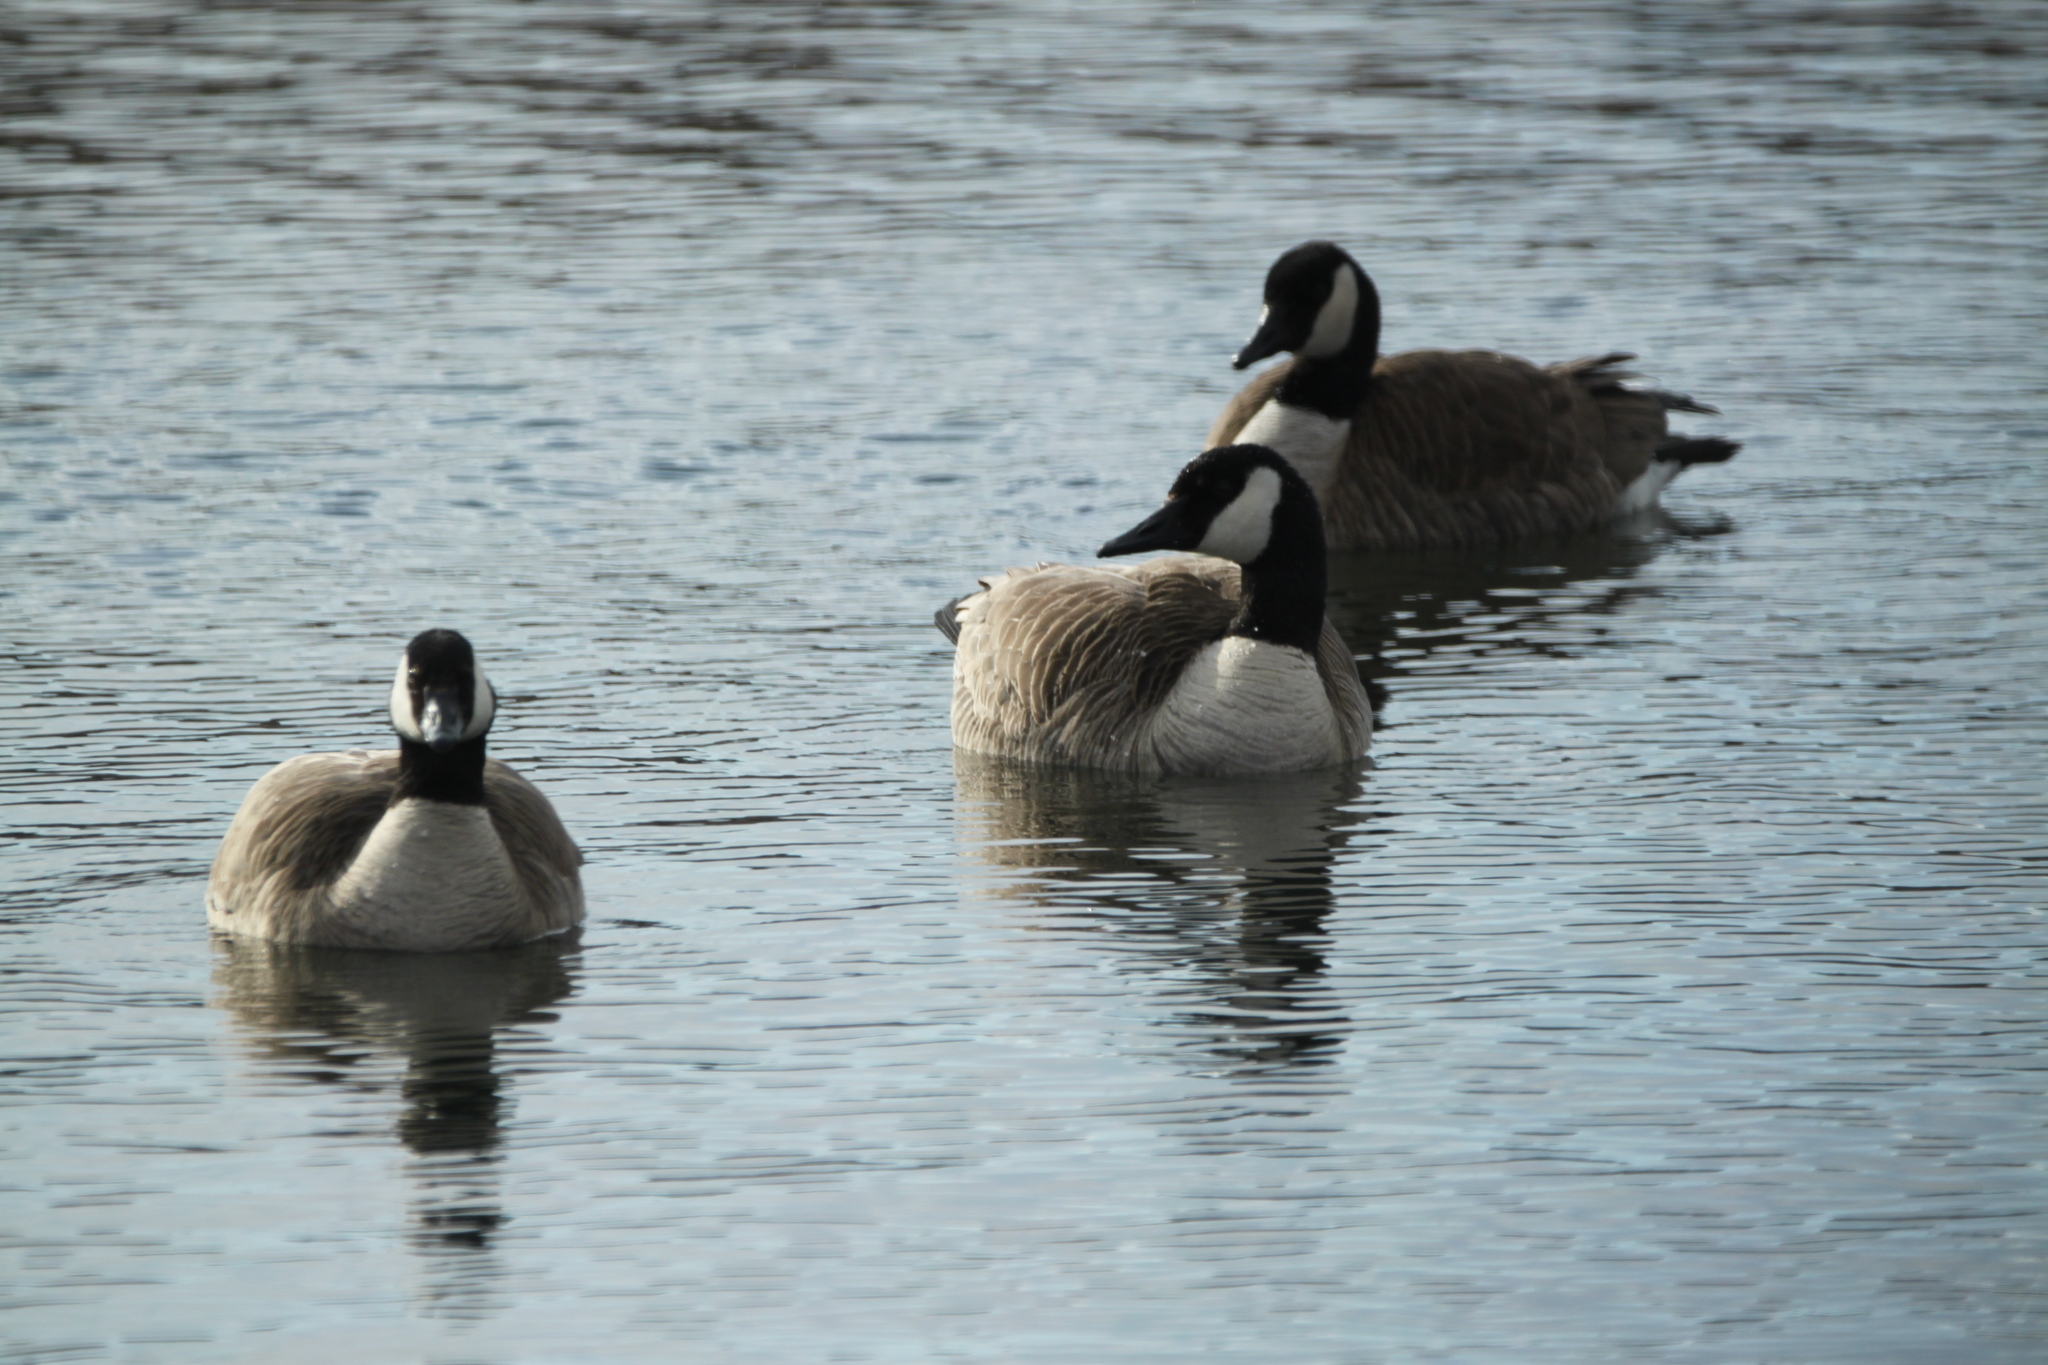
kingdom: Animalia
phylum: Chordata
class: Aves
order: Anseriformes
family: Anatidae
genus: Branta
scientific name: Branta canadensis
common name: Canada goose
